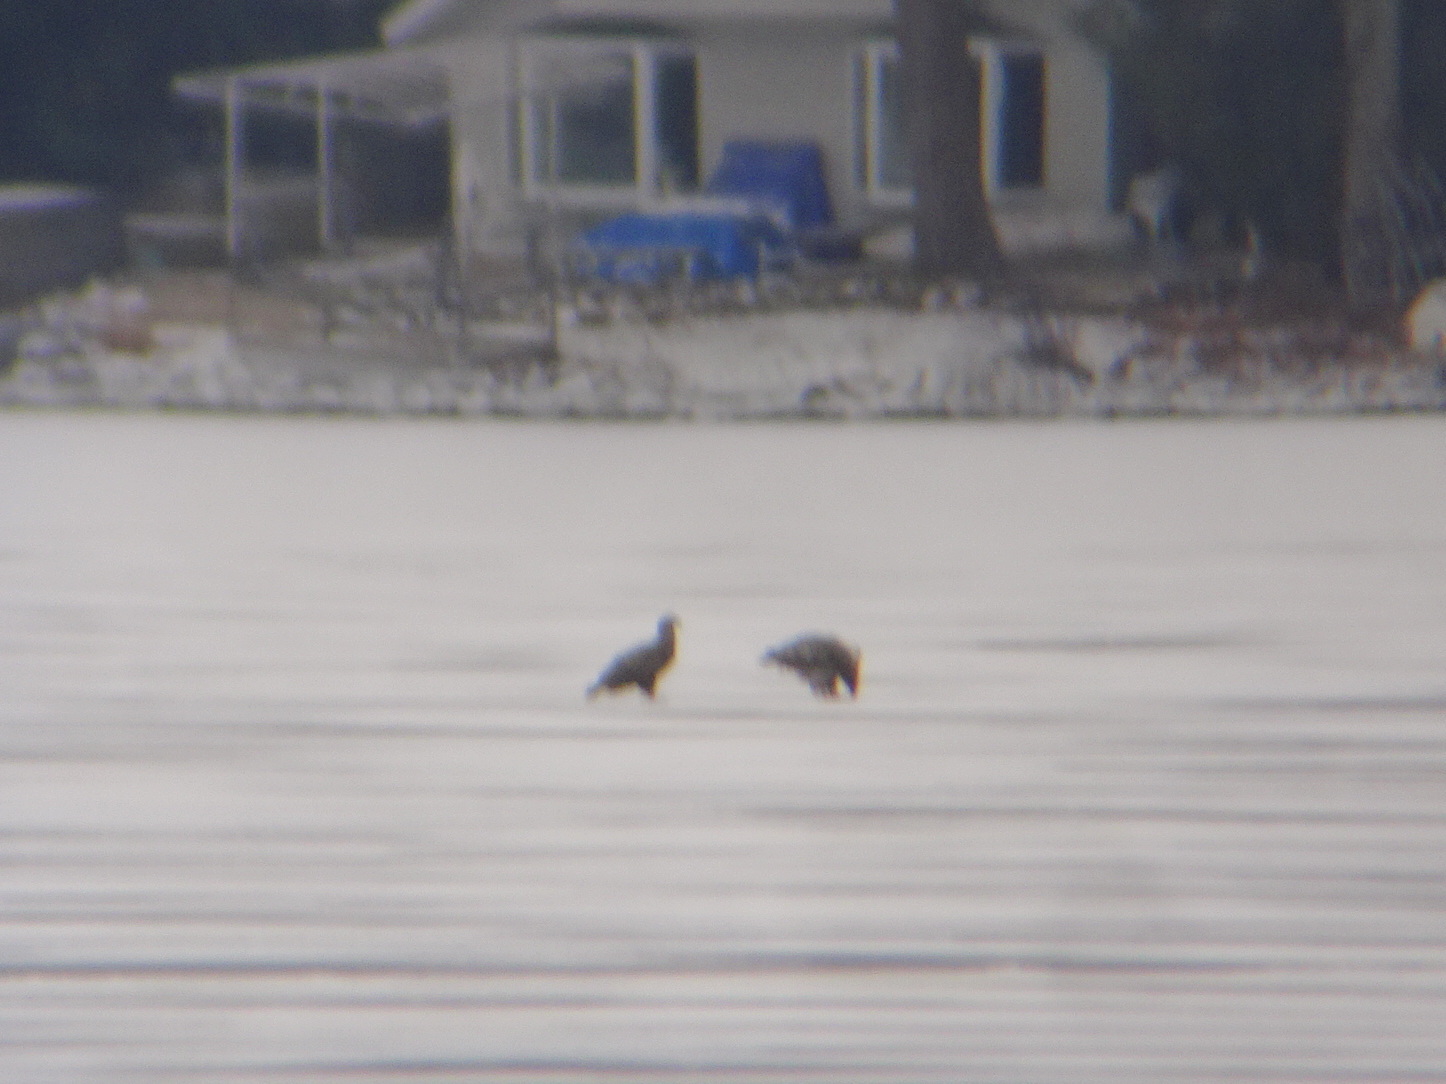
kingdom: Animalia
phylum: Chordata
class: Aves
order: Accipitriformes
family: Accipitridae
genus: Haliaeetus
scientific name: Haliaeetus leucocephalus
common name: Bald eagle
